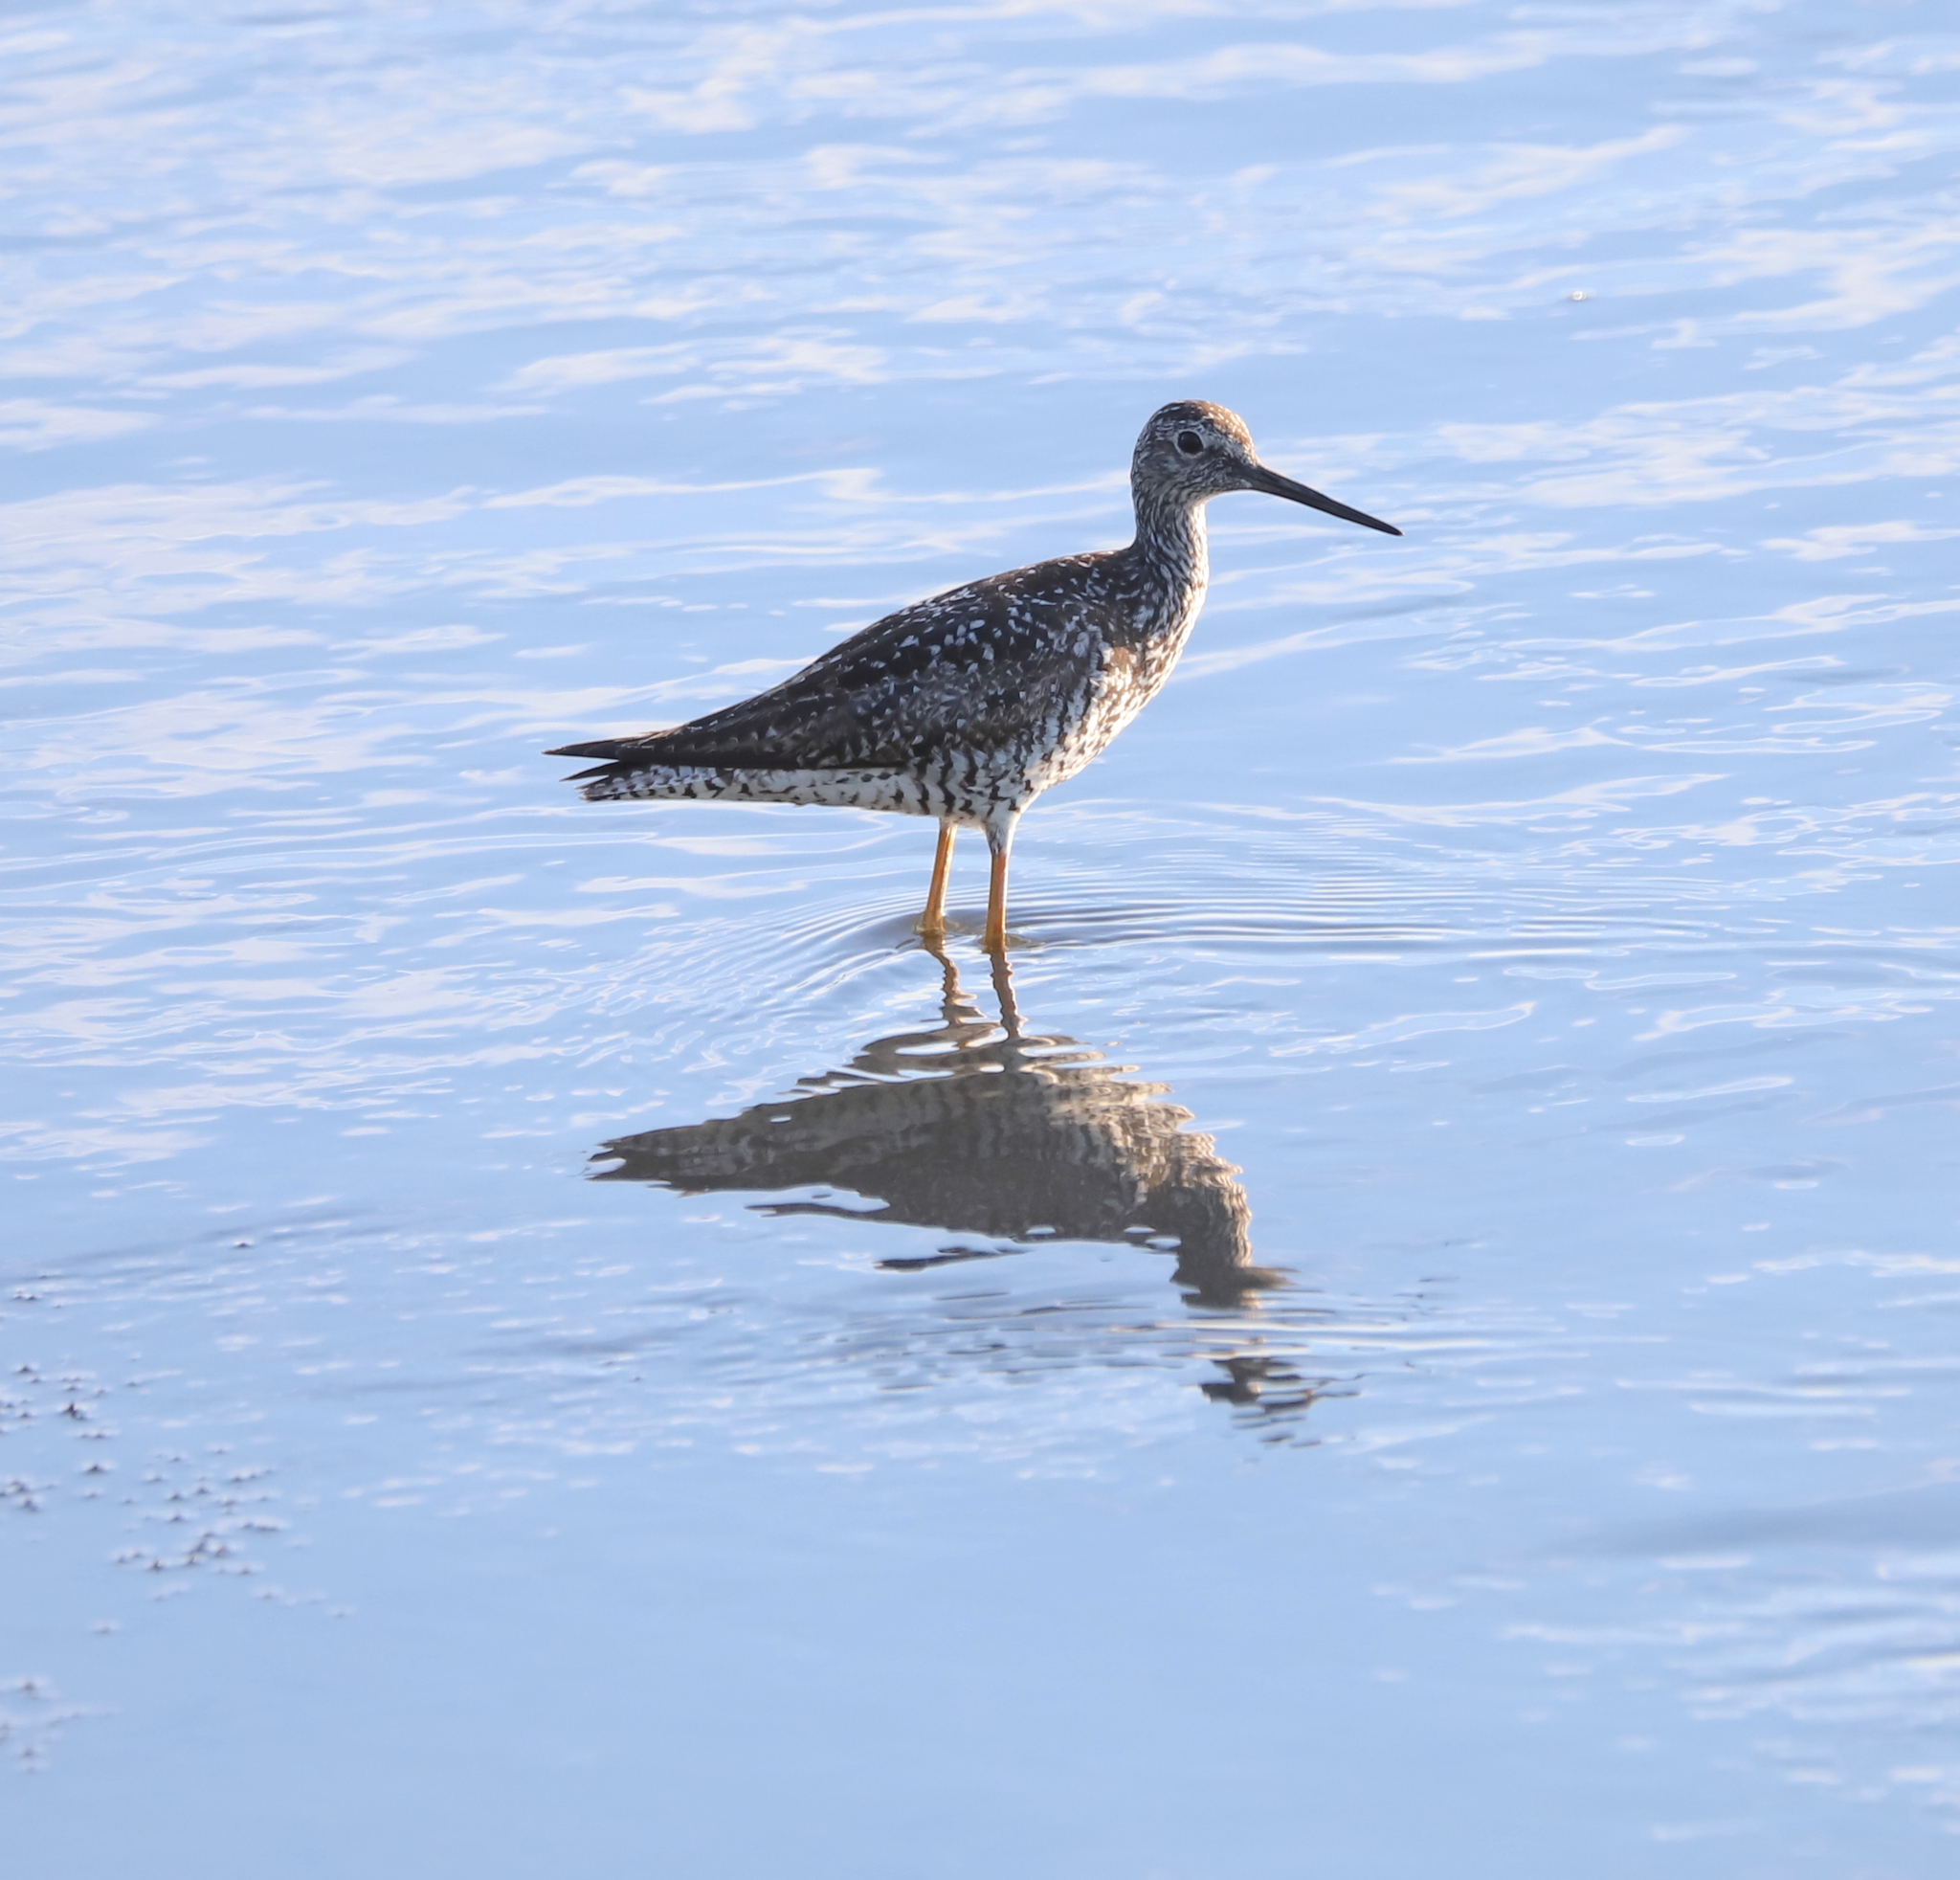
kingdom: Animalia
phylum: Chordata
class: Aves
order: Charadriiformes
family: Scolopacidae
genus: Tringa
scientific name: Tringa melanoleuca
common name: Greater yellowlegs
